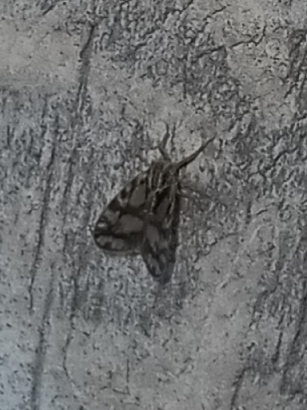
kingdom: Animalia
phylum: Arthropoda
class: Insecta
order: Hemiptera
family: Cixiidae
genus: Bothriocera
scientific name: Bothriocera cognita
